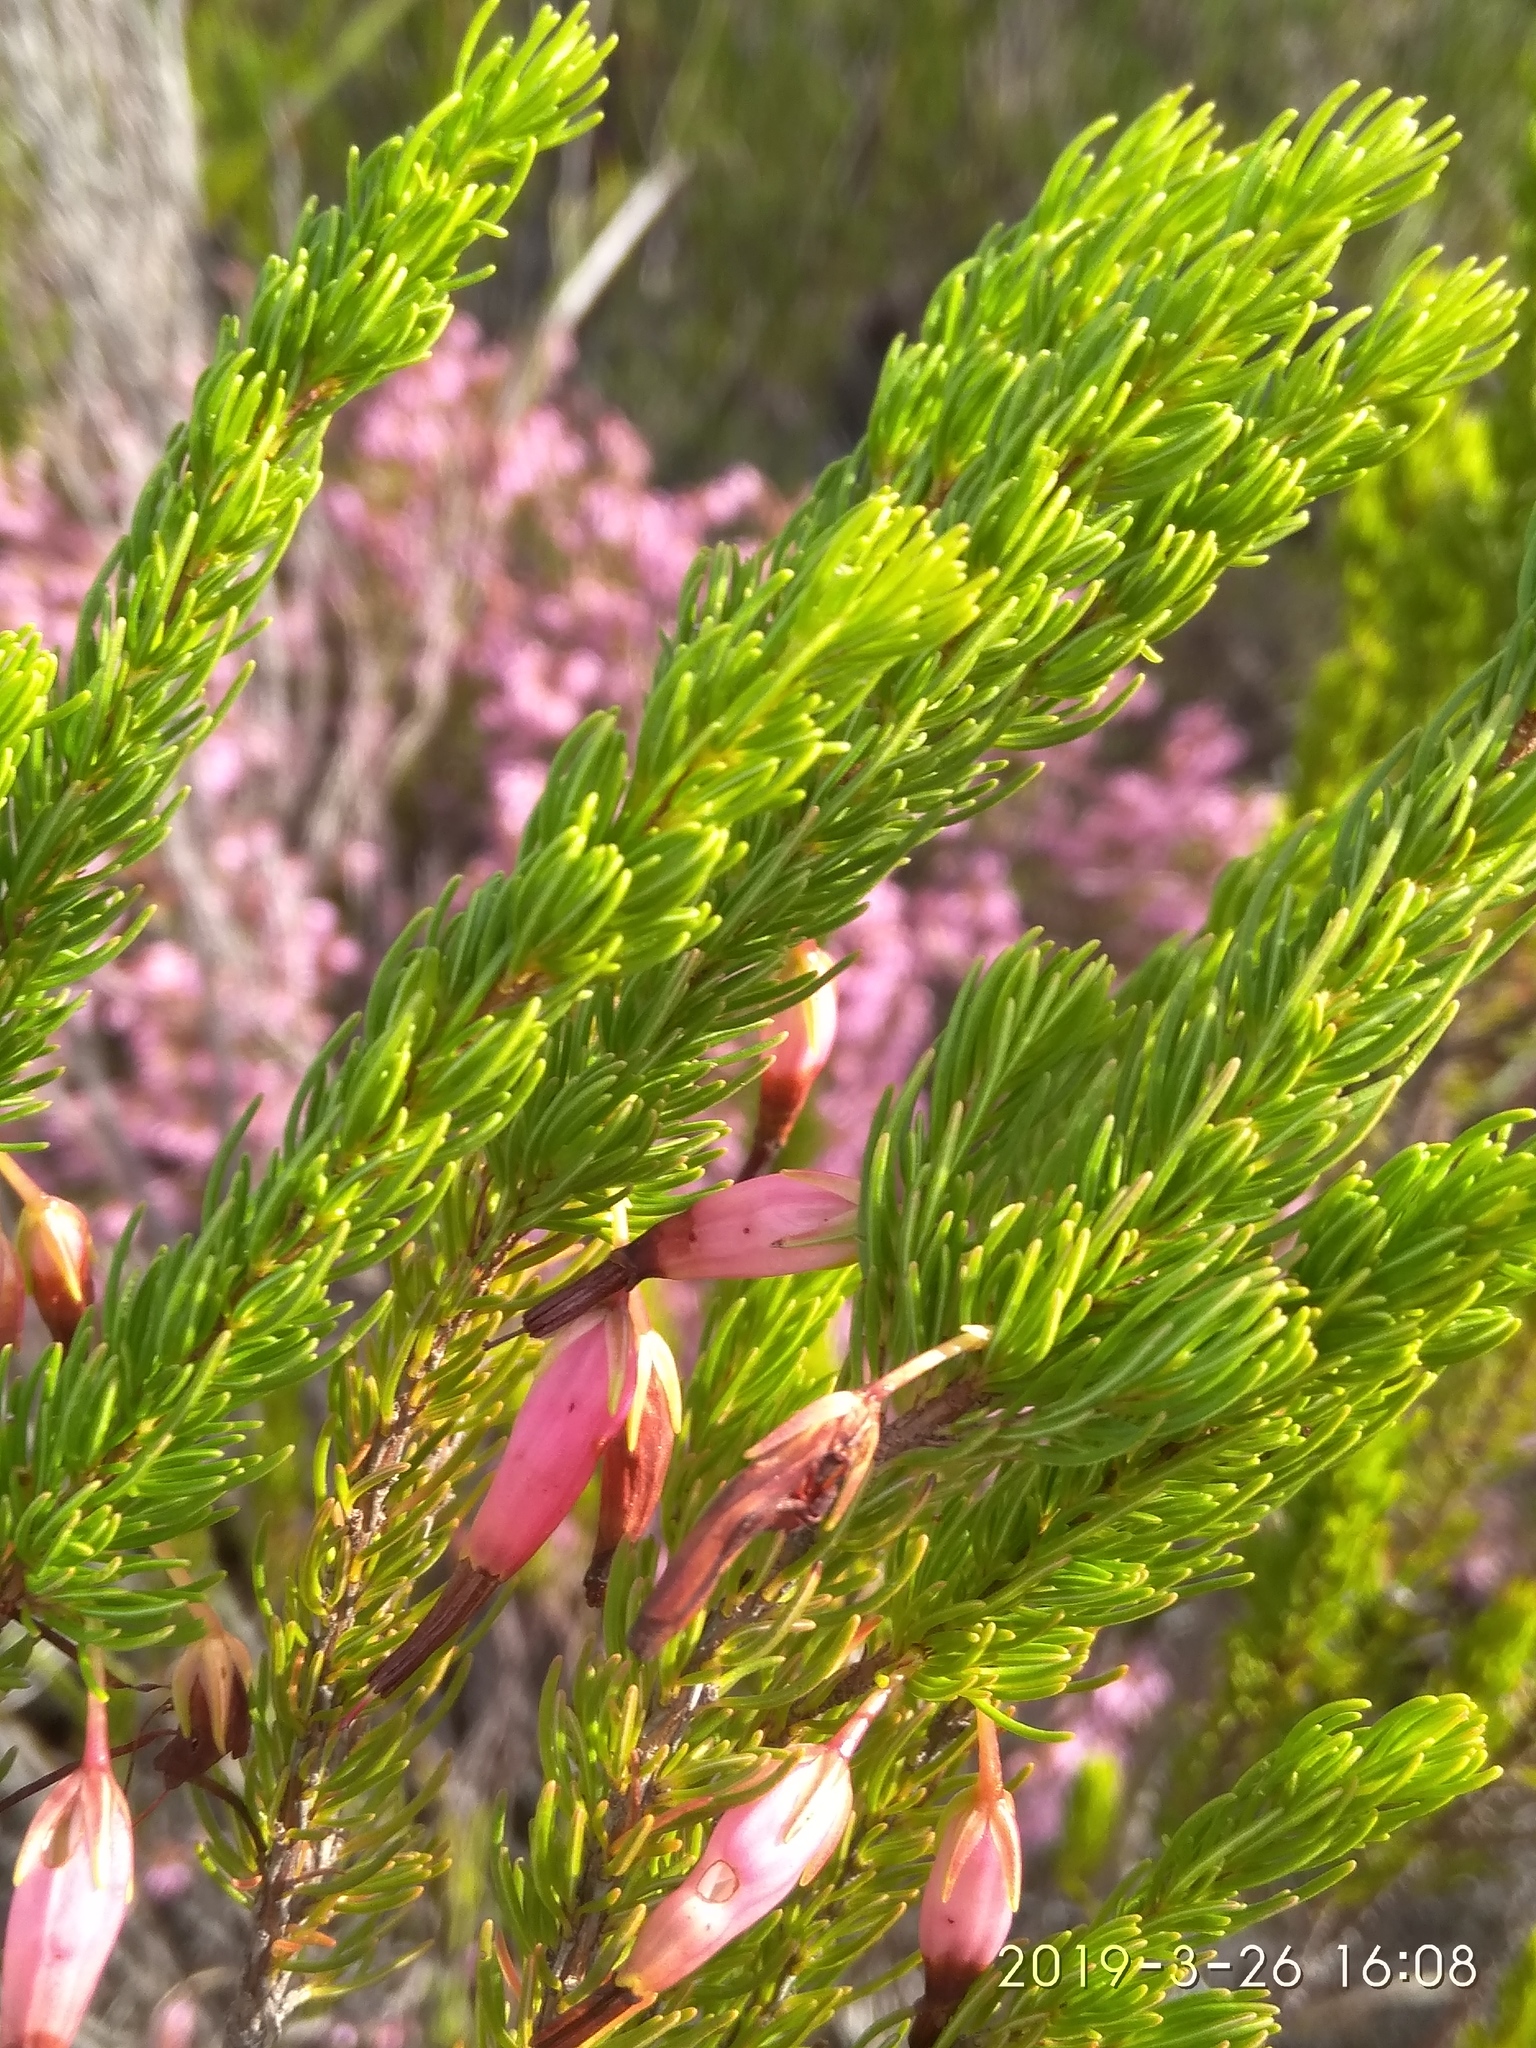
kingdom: Plantae
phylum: Tracheophyta
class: Magnoliopsida
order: Ericales
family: Ericaceae
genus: Erica
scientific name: Erica plukenetii
